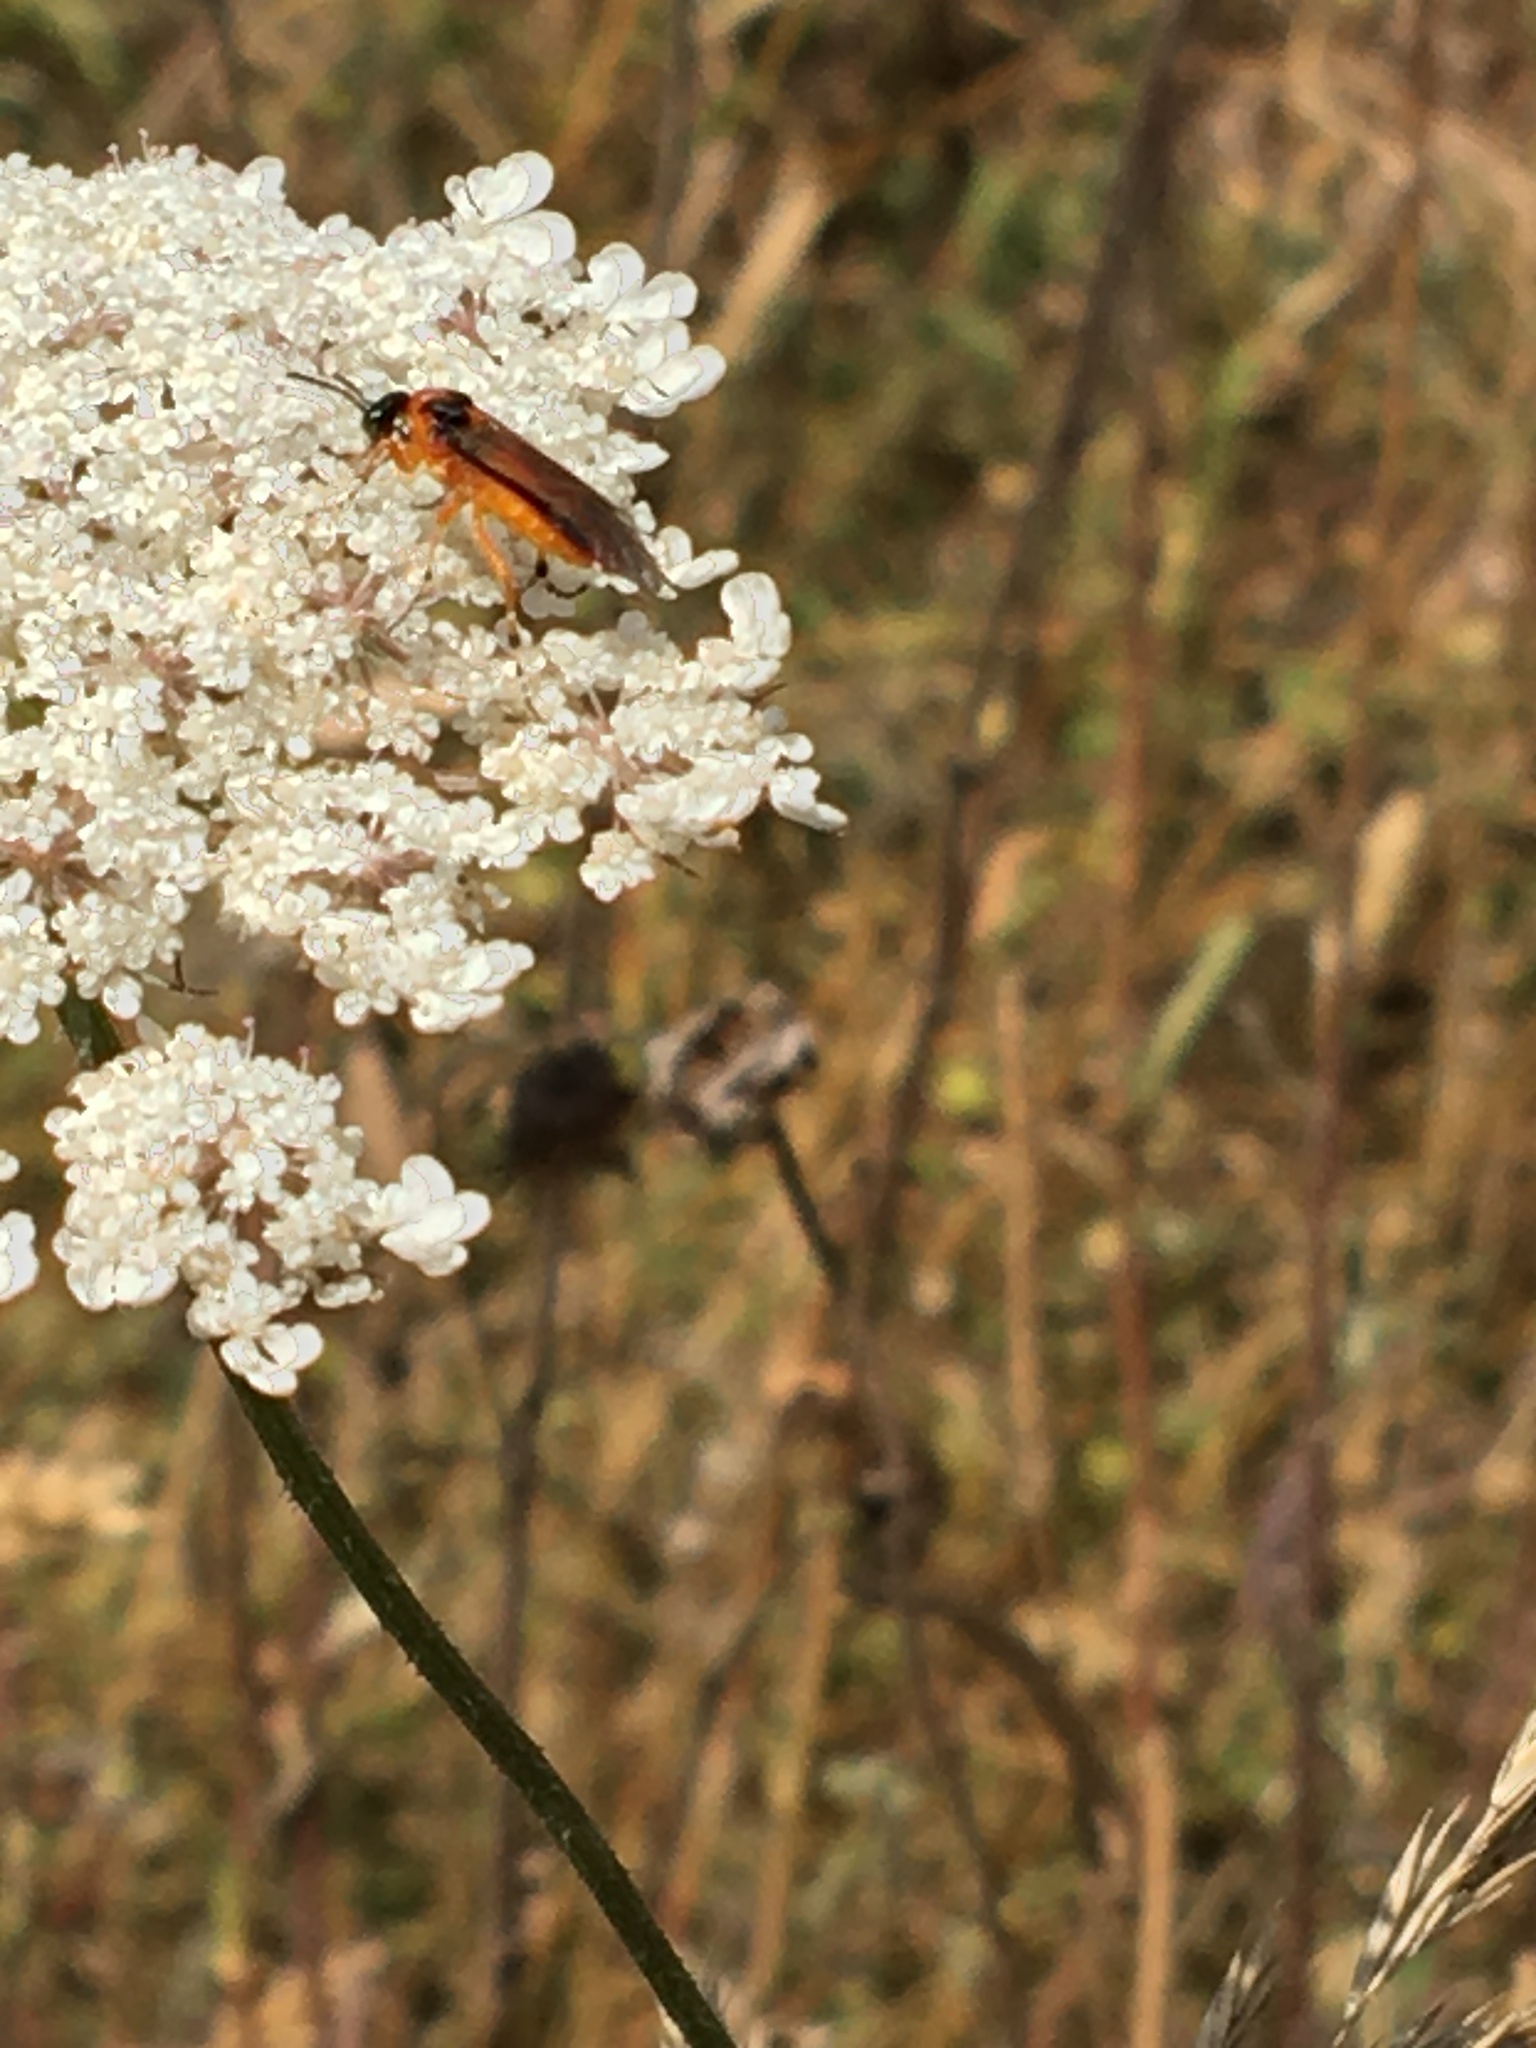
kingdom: Animalia
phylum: Arthropoda
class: Insecta
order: Hymenoptera
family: Tenthredinidae
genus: Athalia
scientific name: Athalia rosae
